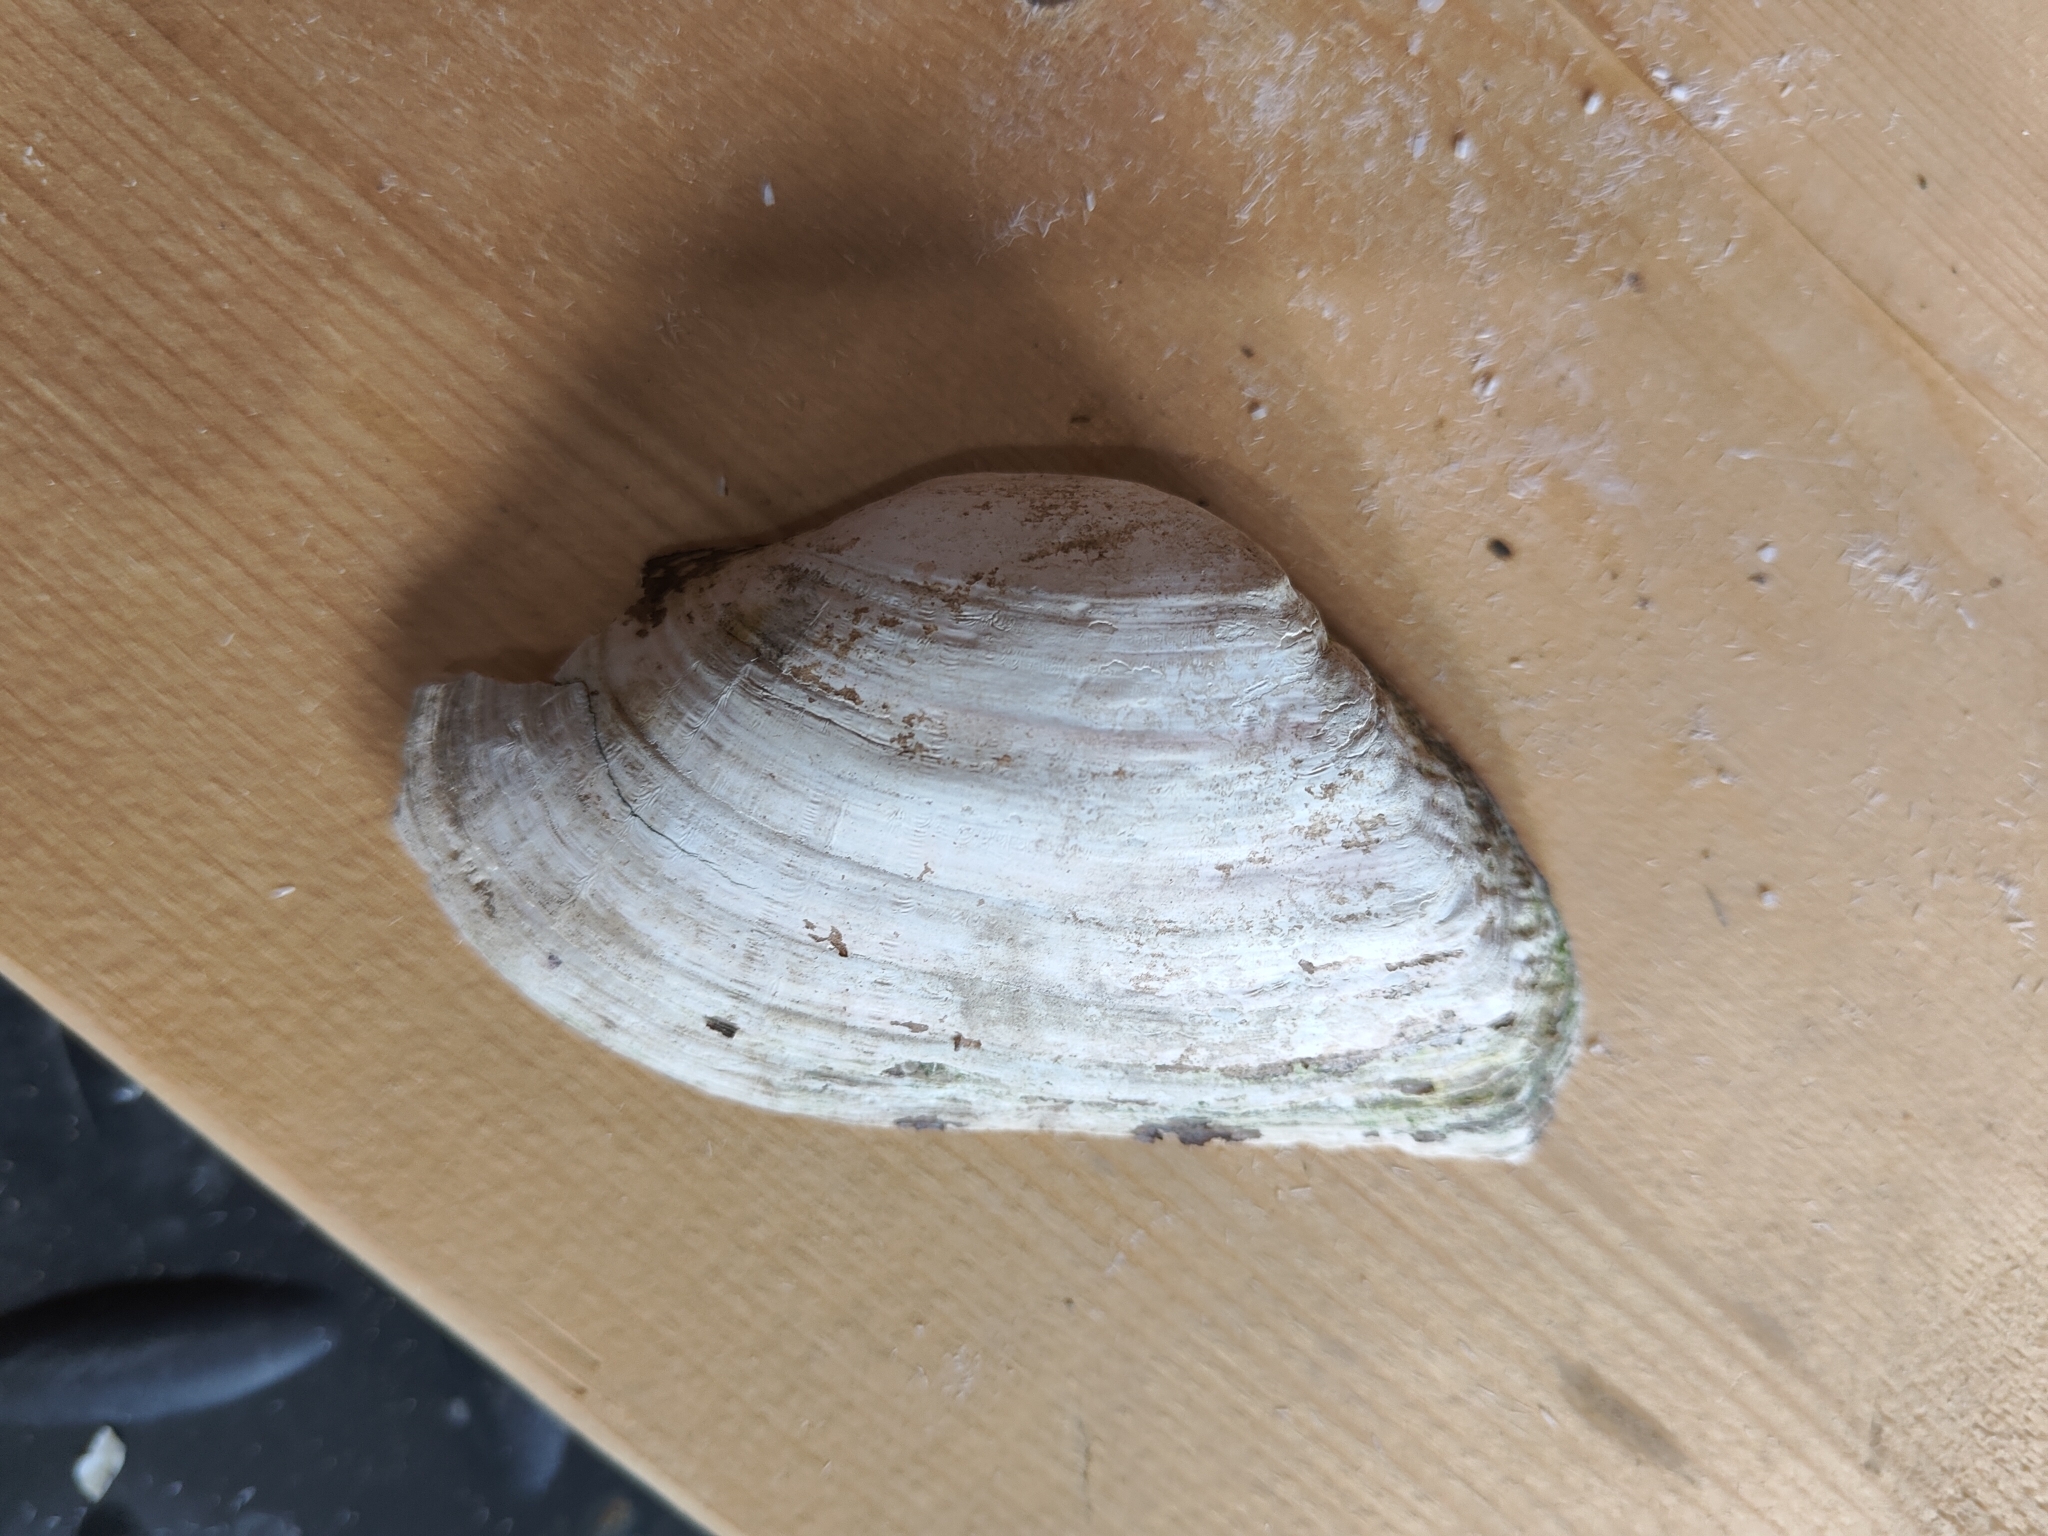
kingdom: Animalia
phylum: Mollusca
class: Bivalvia
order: Unionida
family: Unionidae
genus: Alasmidonta
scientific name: Alasmidonta marginata
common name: Elktoe
